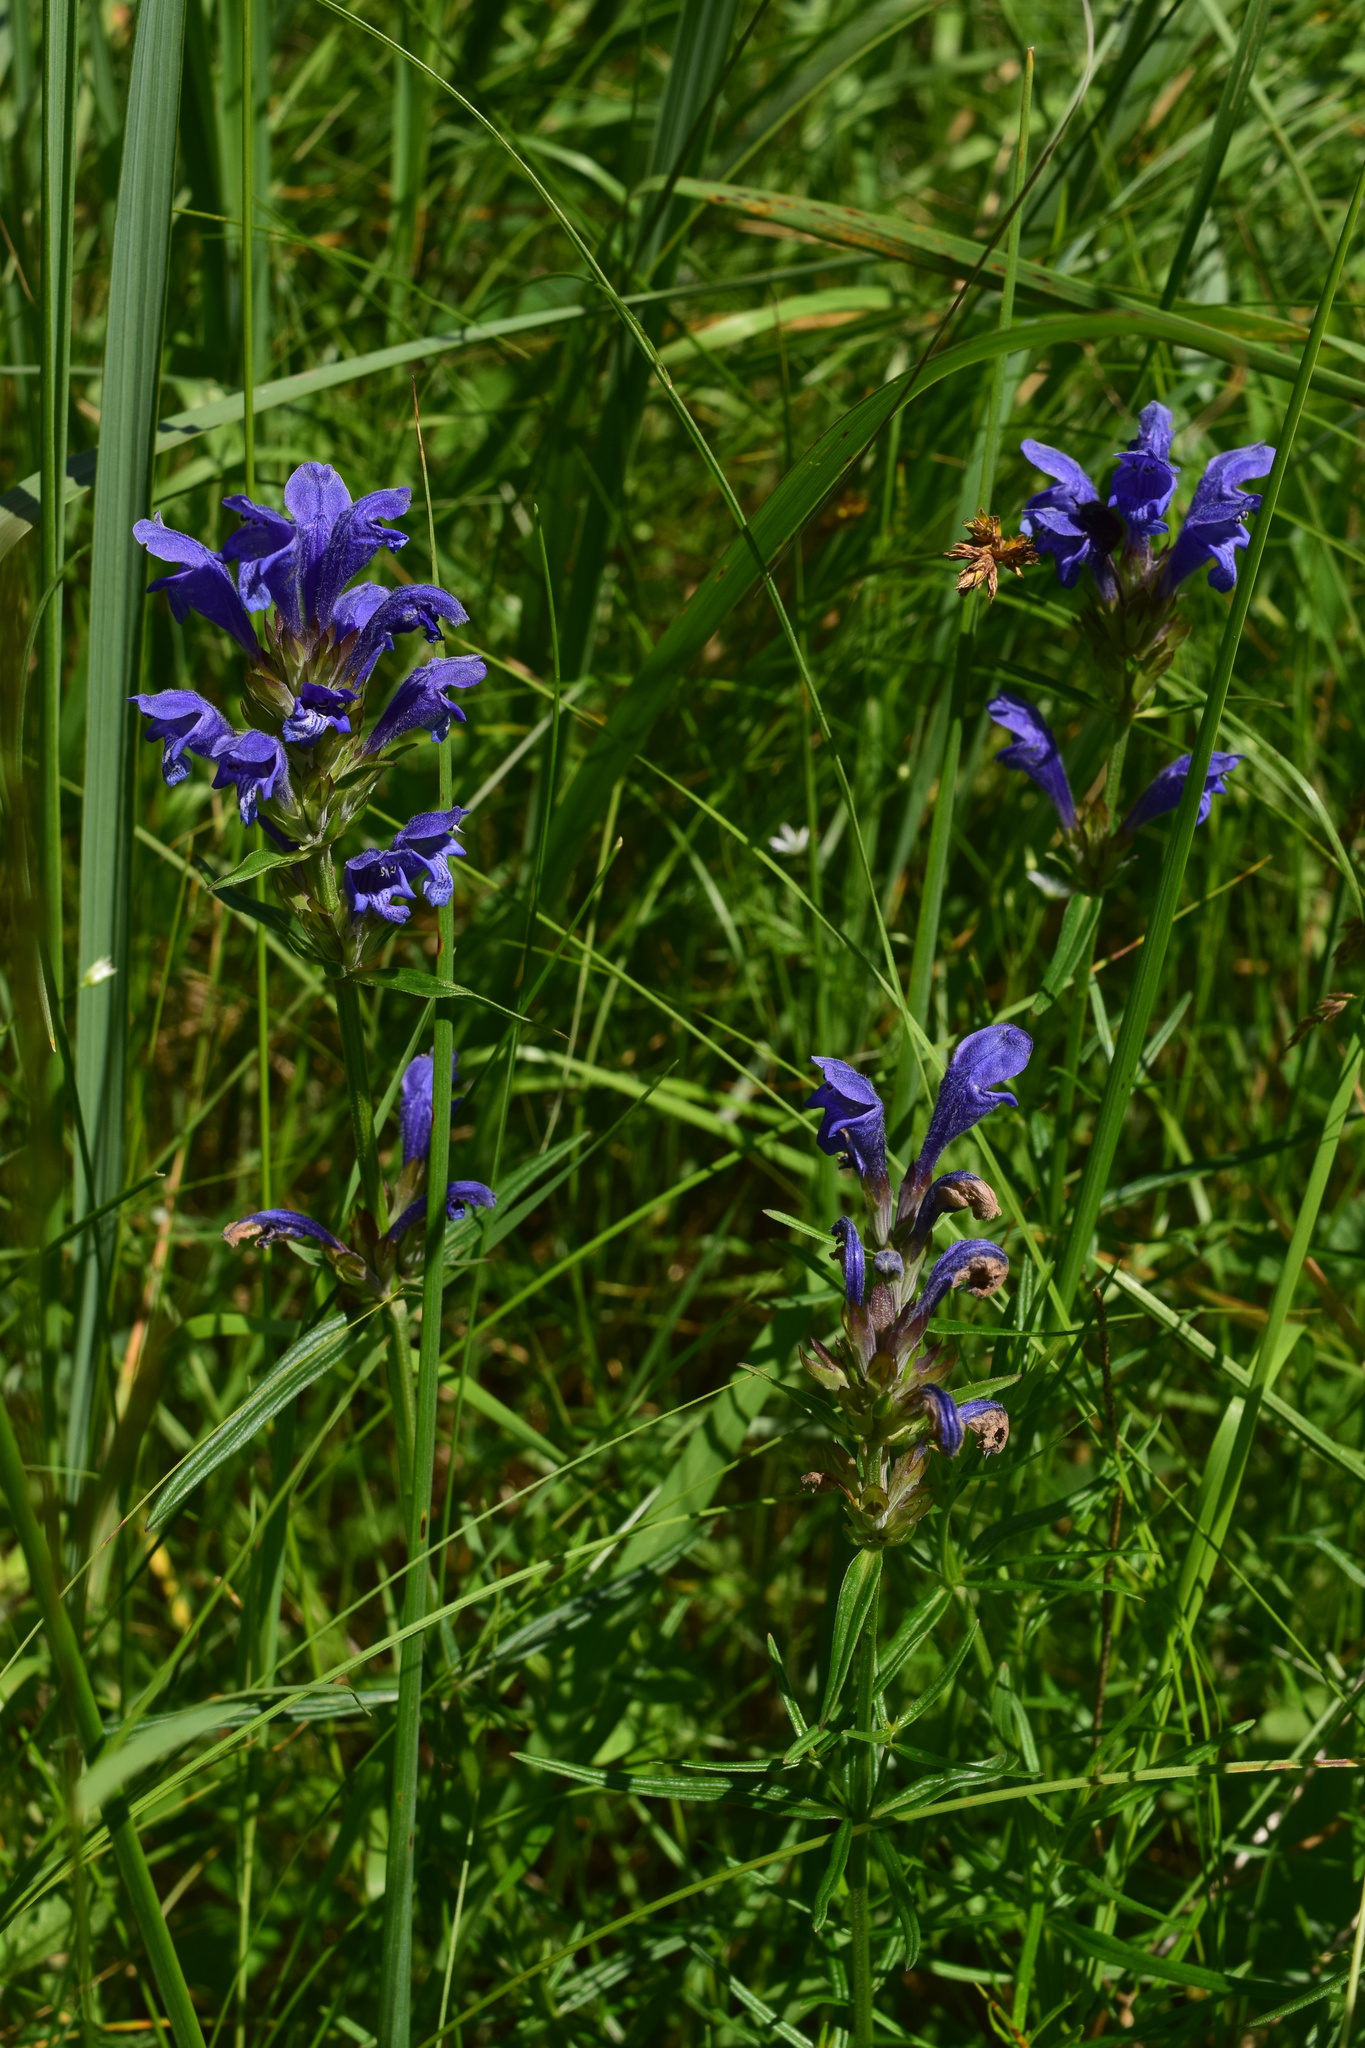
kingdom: Plantae
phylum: Tracheophyta
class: Magnoliopsida
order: Lamiales
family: Lamiaceae
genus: Dracocephalum
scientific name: Dracocephalum ruyschiana
